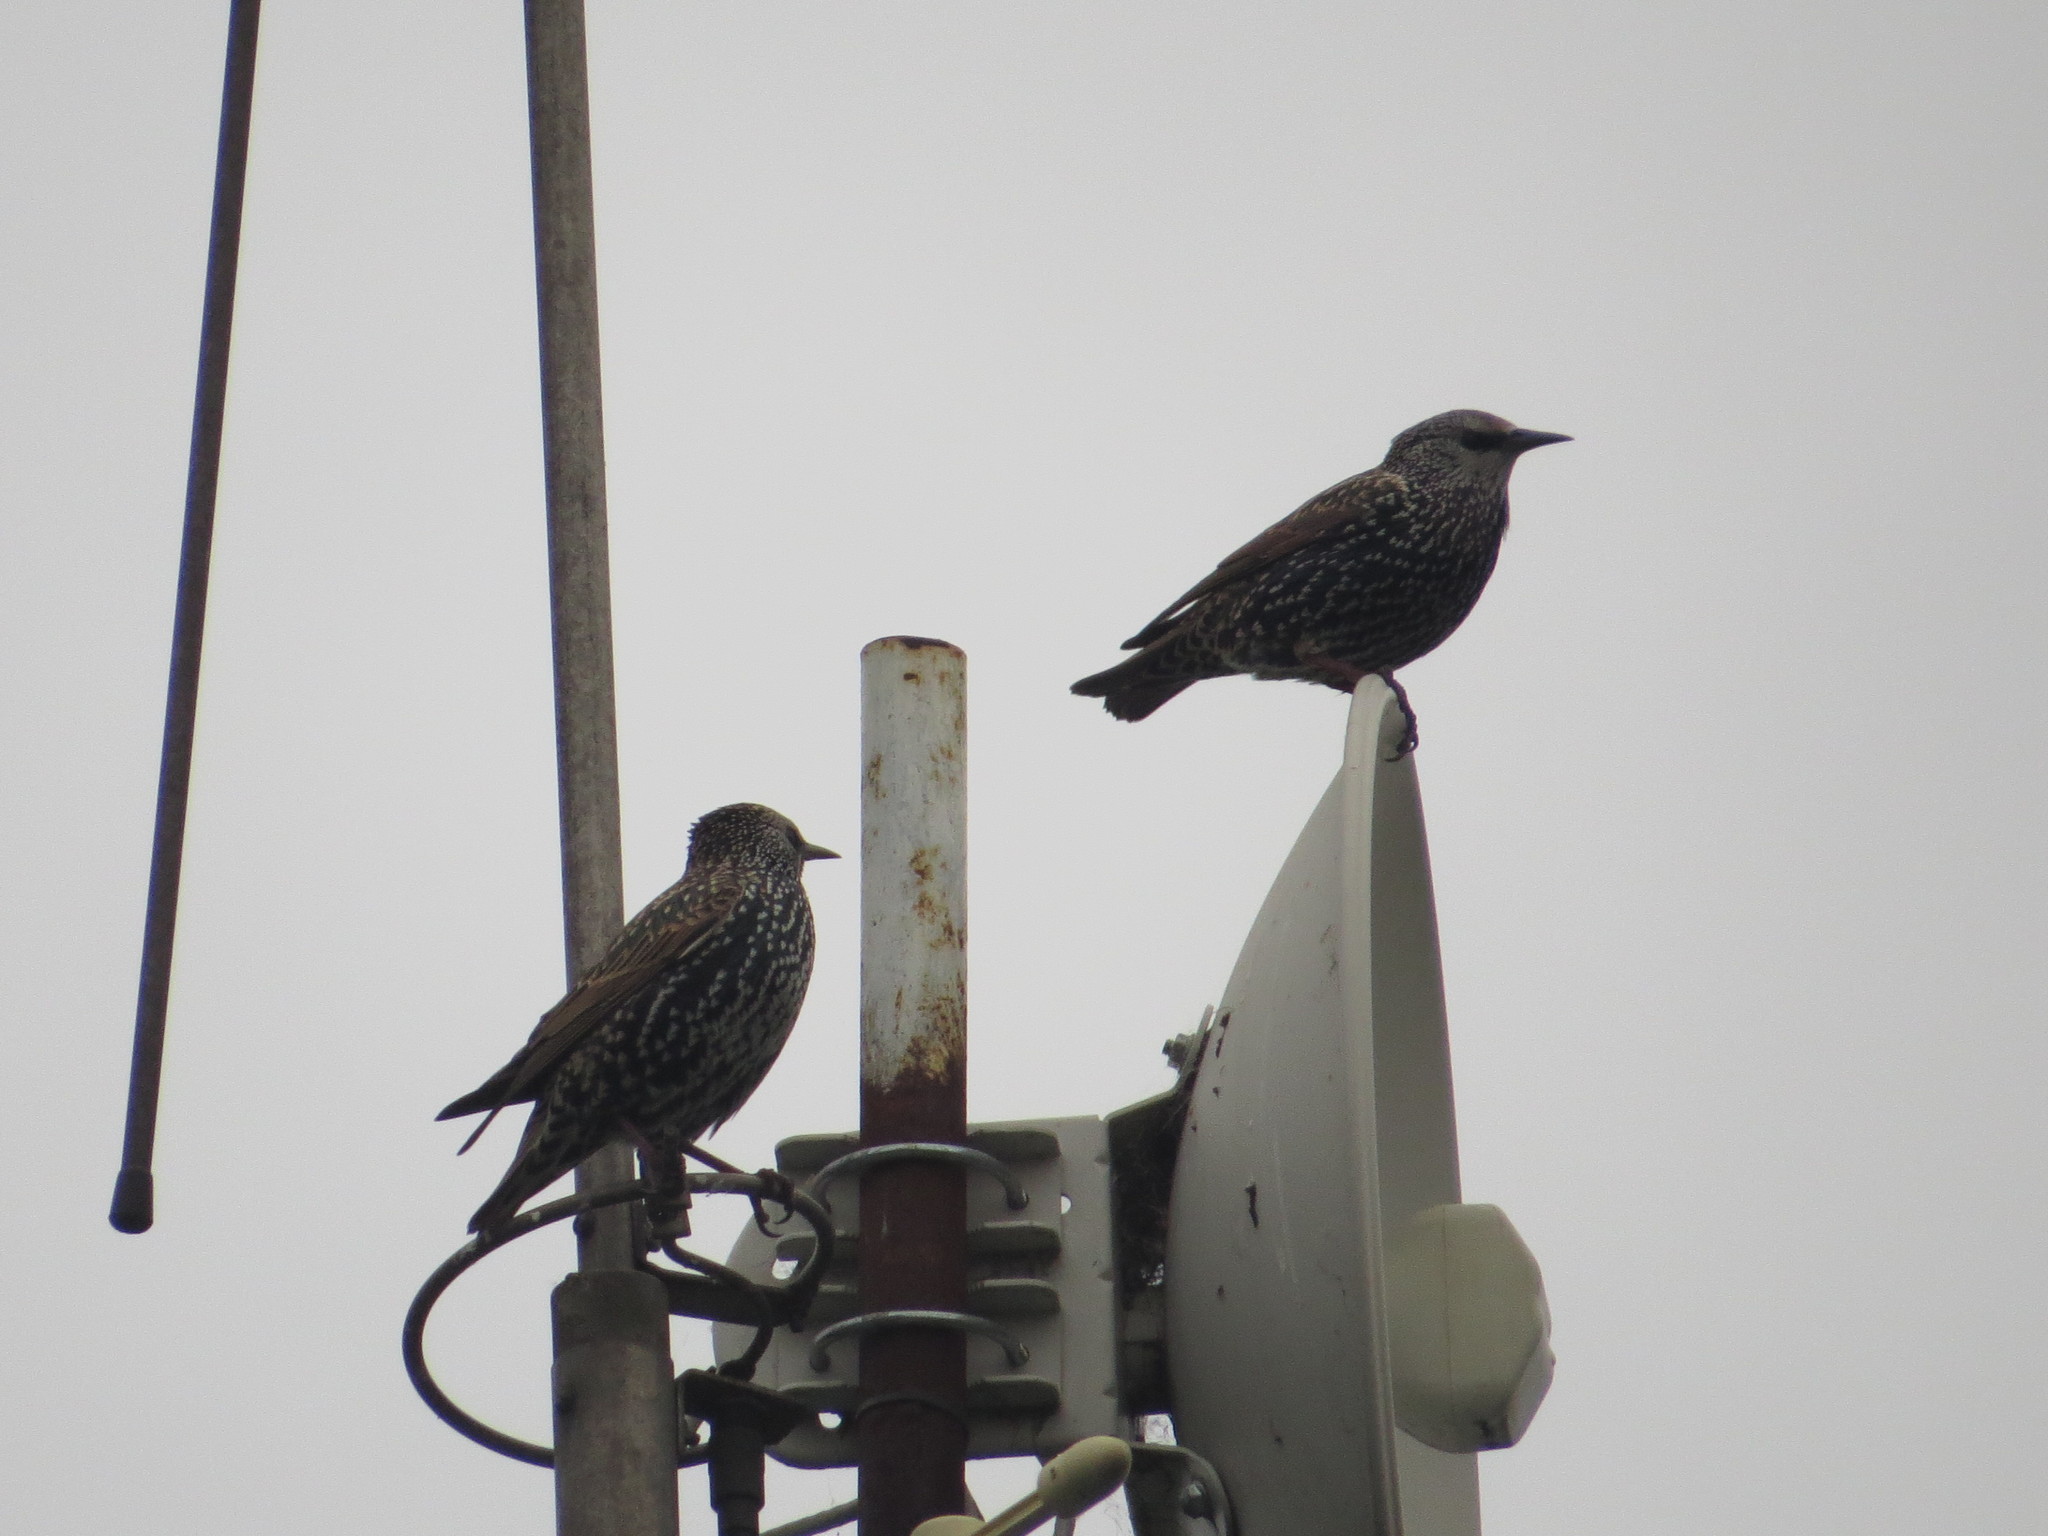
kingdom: Animalia
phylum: Chordata
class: Aves
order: Passeriformes
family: Sturnidae
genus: Sturnus
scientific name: Sturnus vulgaris
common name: Common starling
